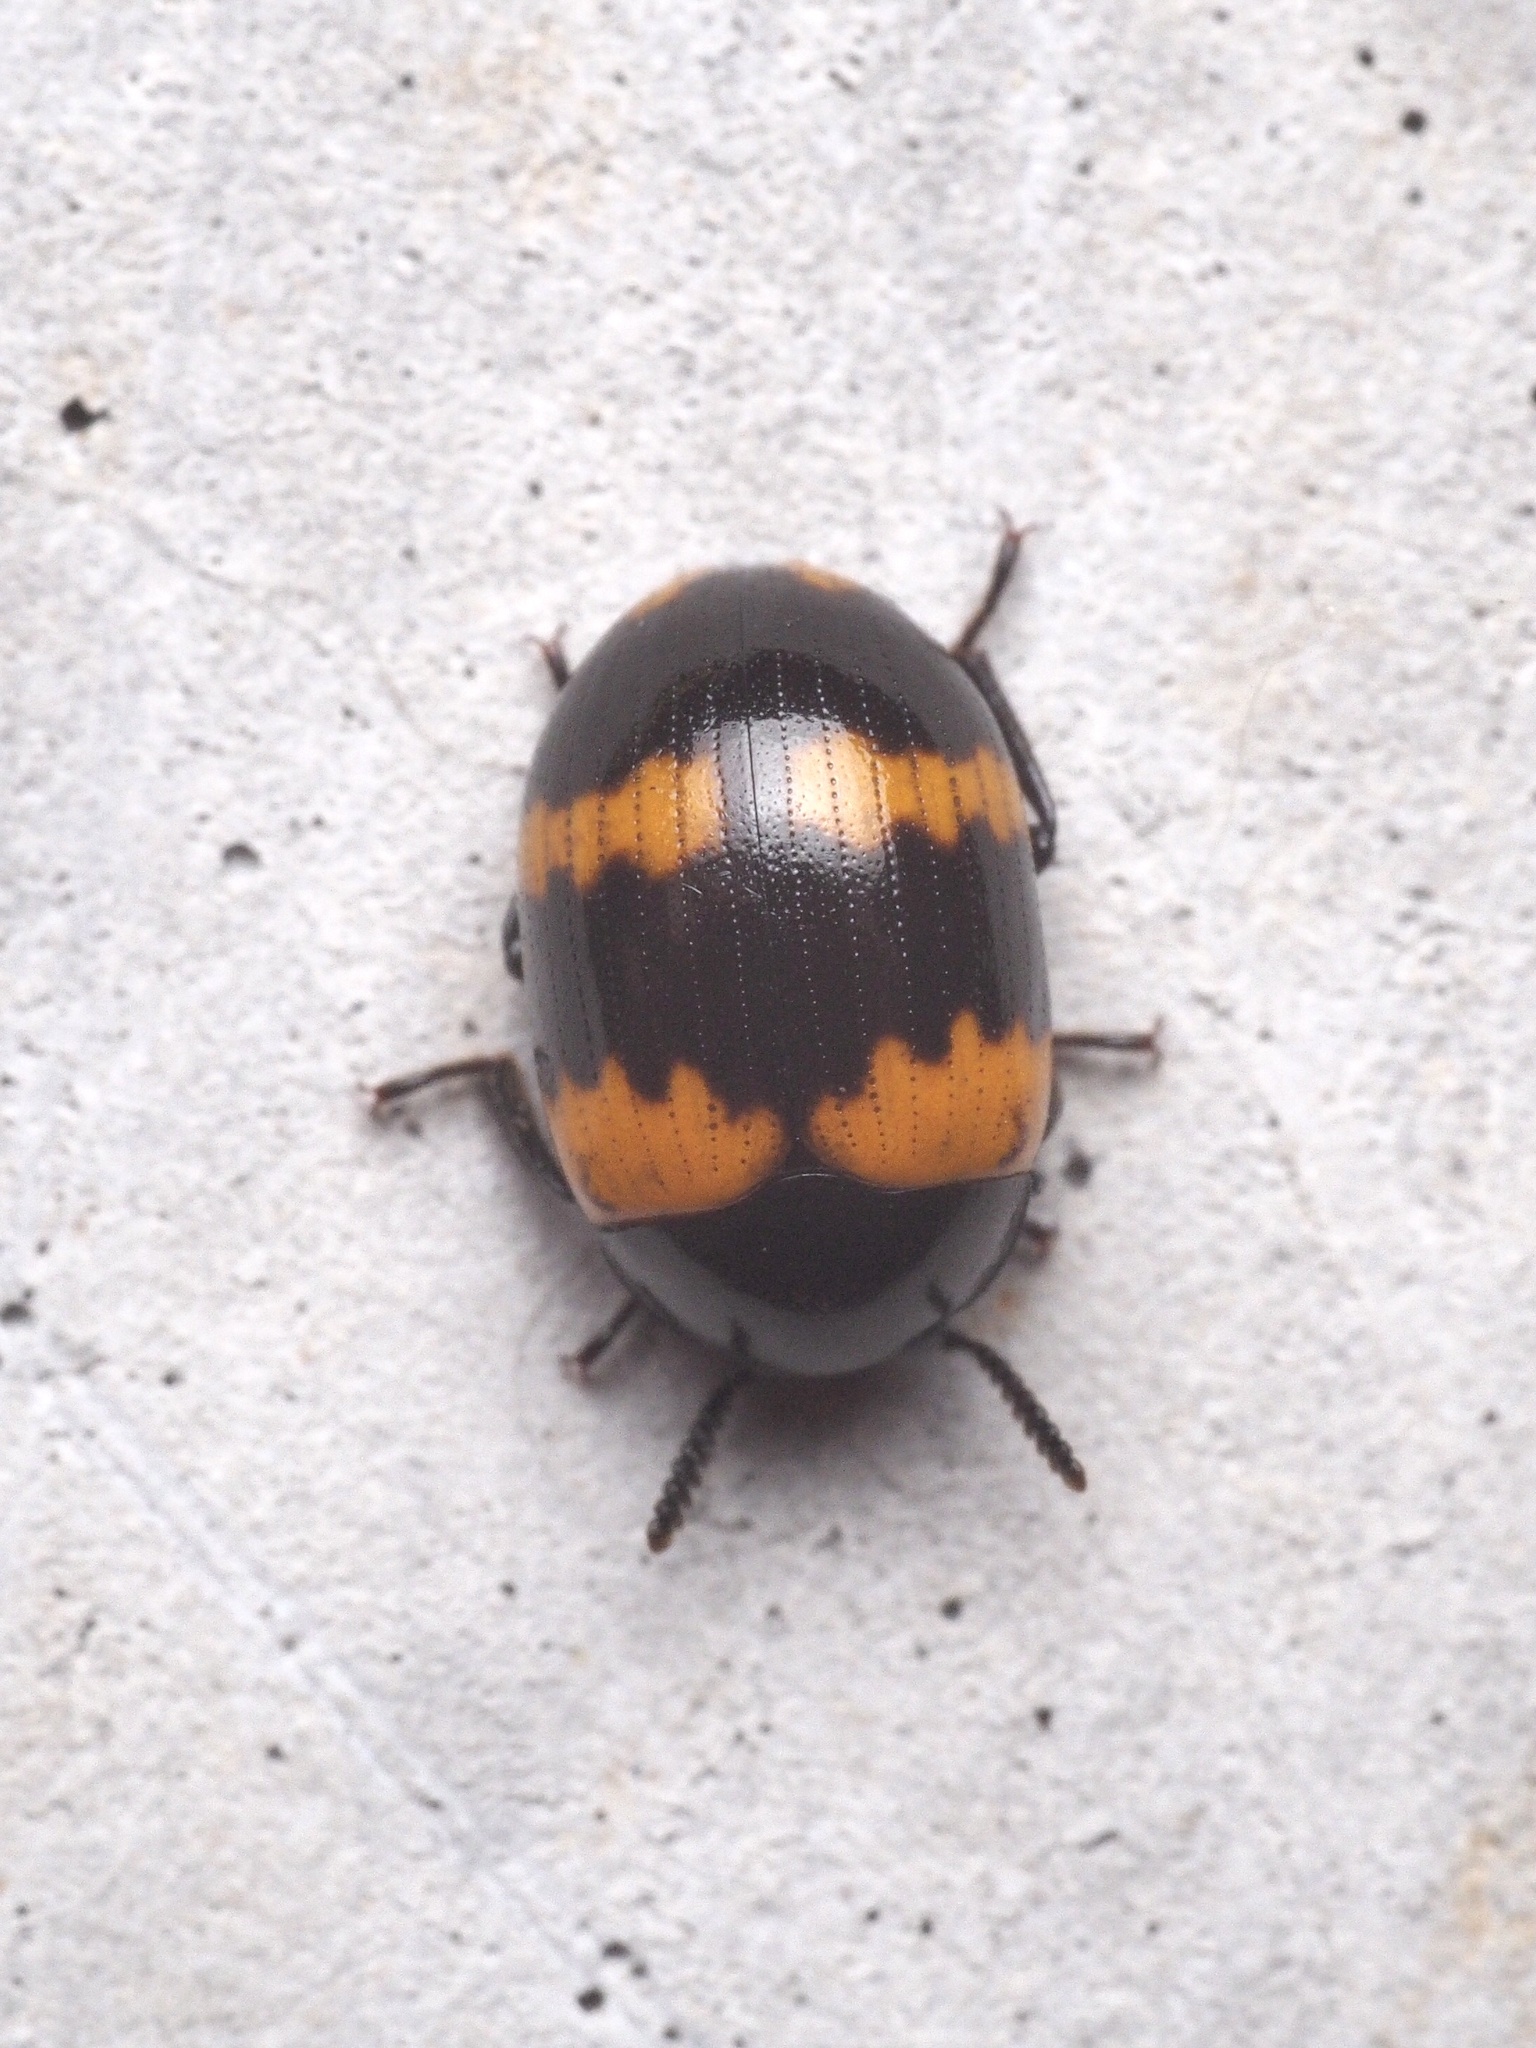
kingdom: Animalia
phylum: Arthropoda
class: Insecta
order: Coleoptera
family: Tenebrionidae
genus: Diaperis
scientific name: Diaperis boleti
